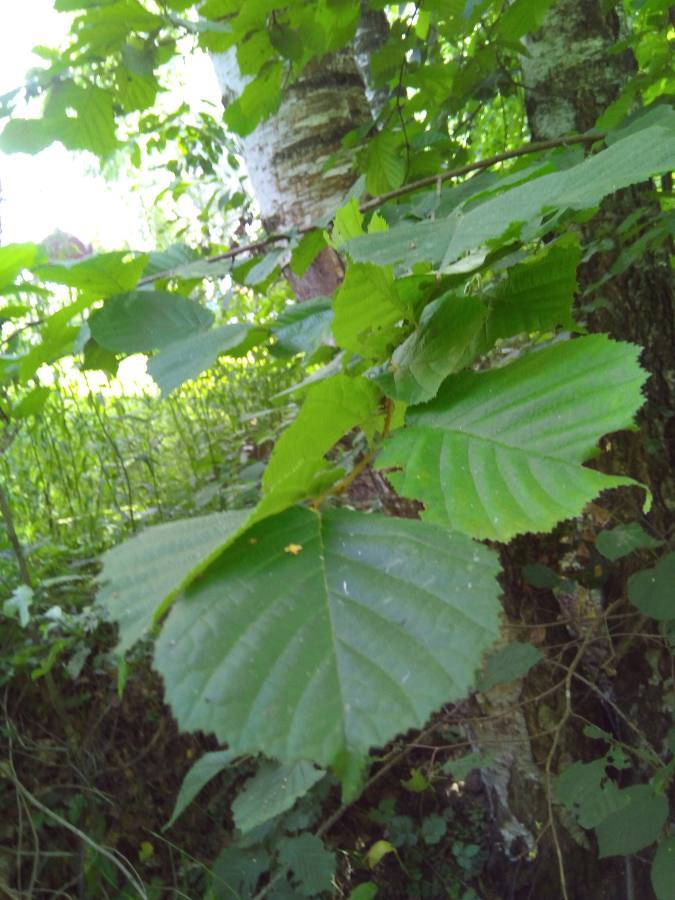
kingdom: Plantae
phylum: Tracheophyta
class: Magnoliopsida
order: Fagales
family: Betulaceae
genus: Corylus
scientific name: Corylus avellana
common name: European hazel
